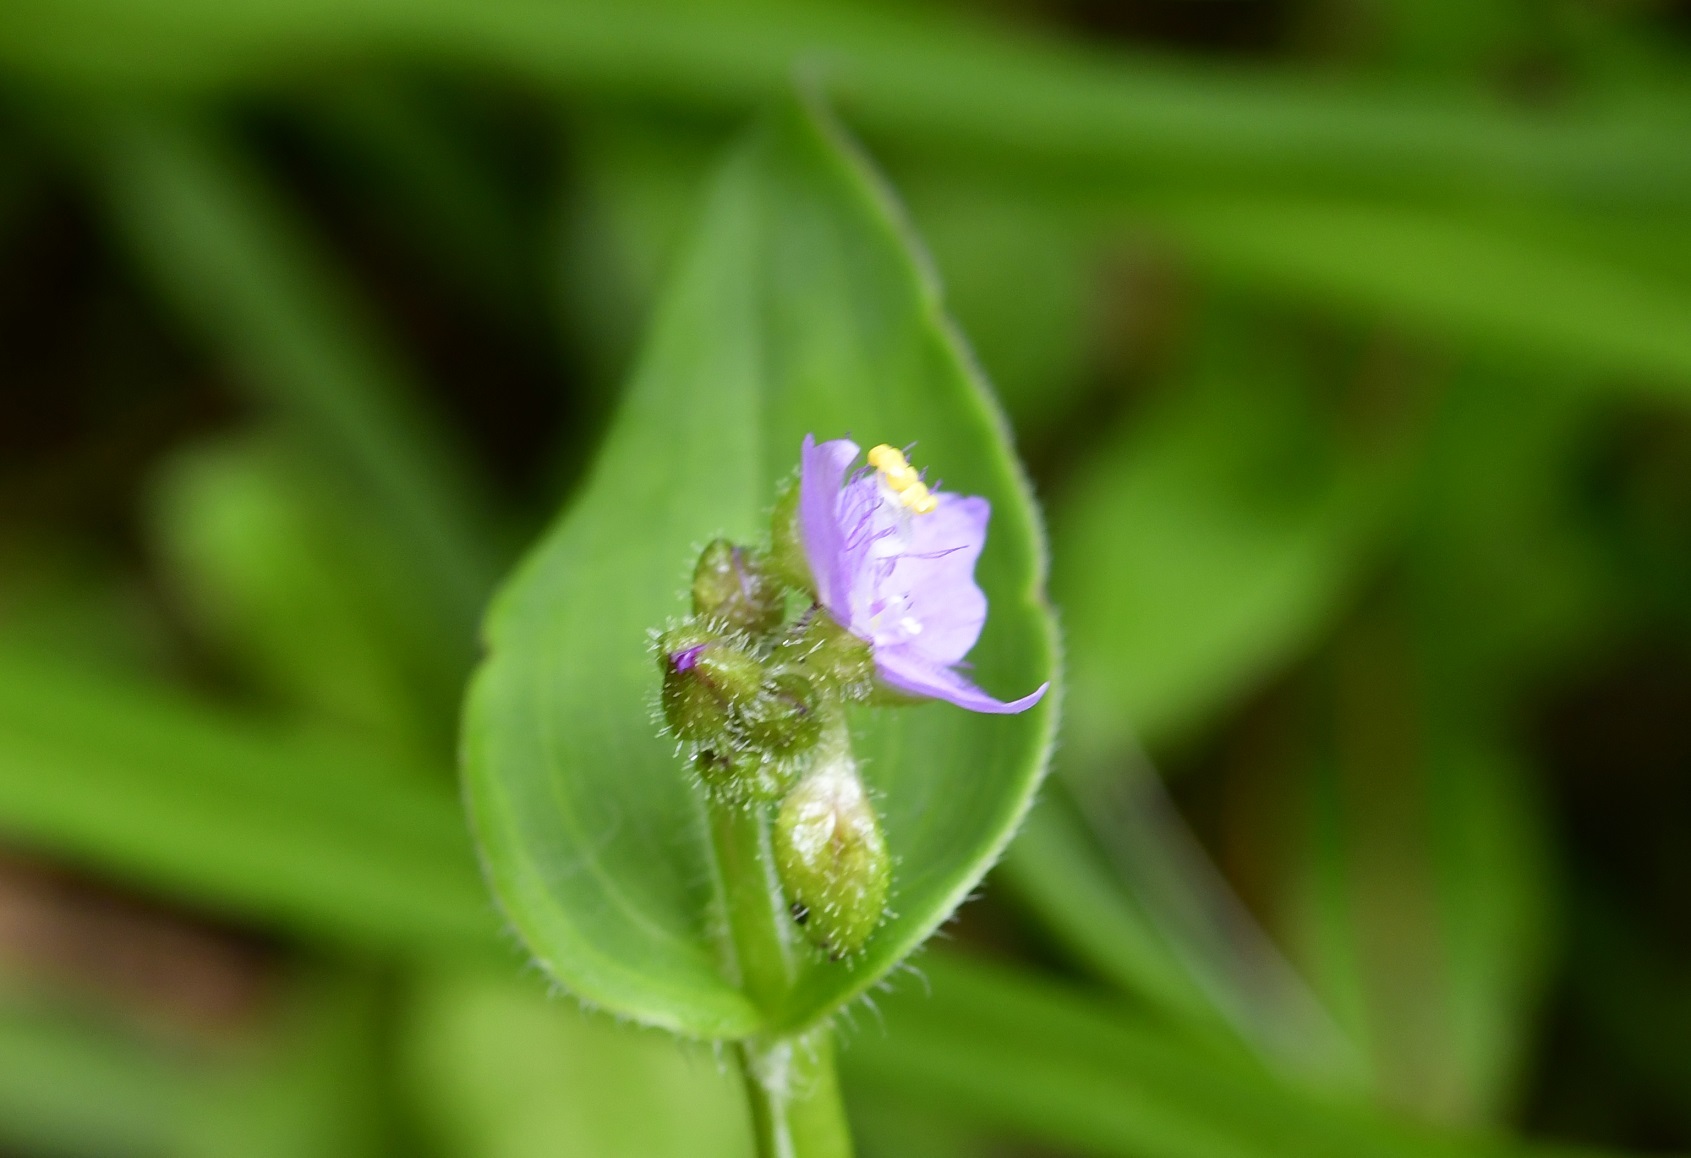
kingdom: Plantae
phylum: Tracheophyta
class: Liliopsida
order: Commelinales
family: Commelinaceae
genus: Callisia
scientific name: Callisia purpurascens
